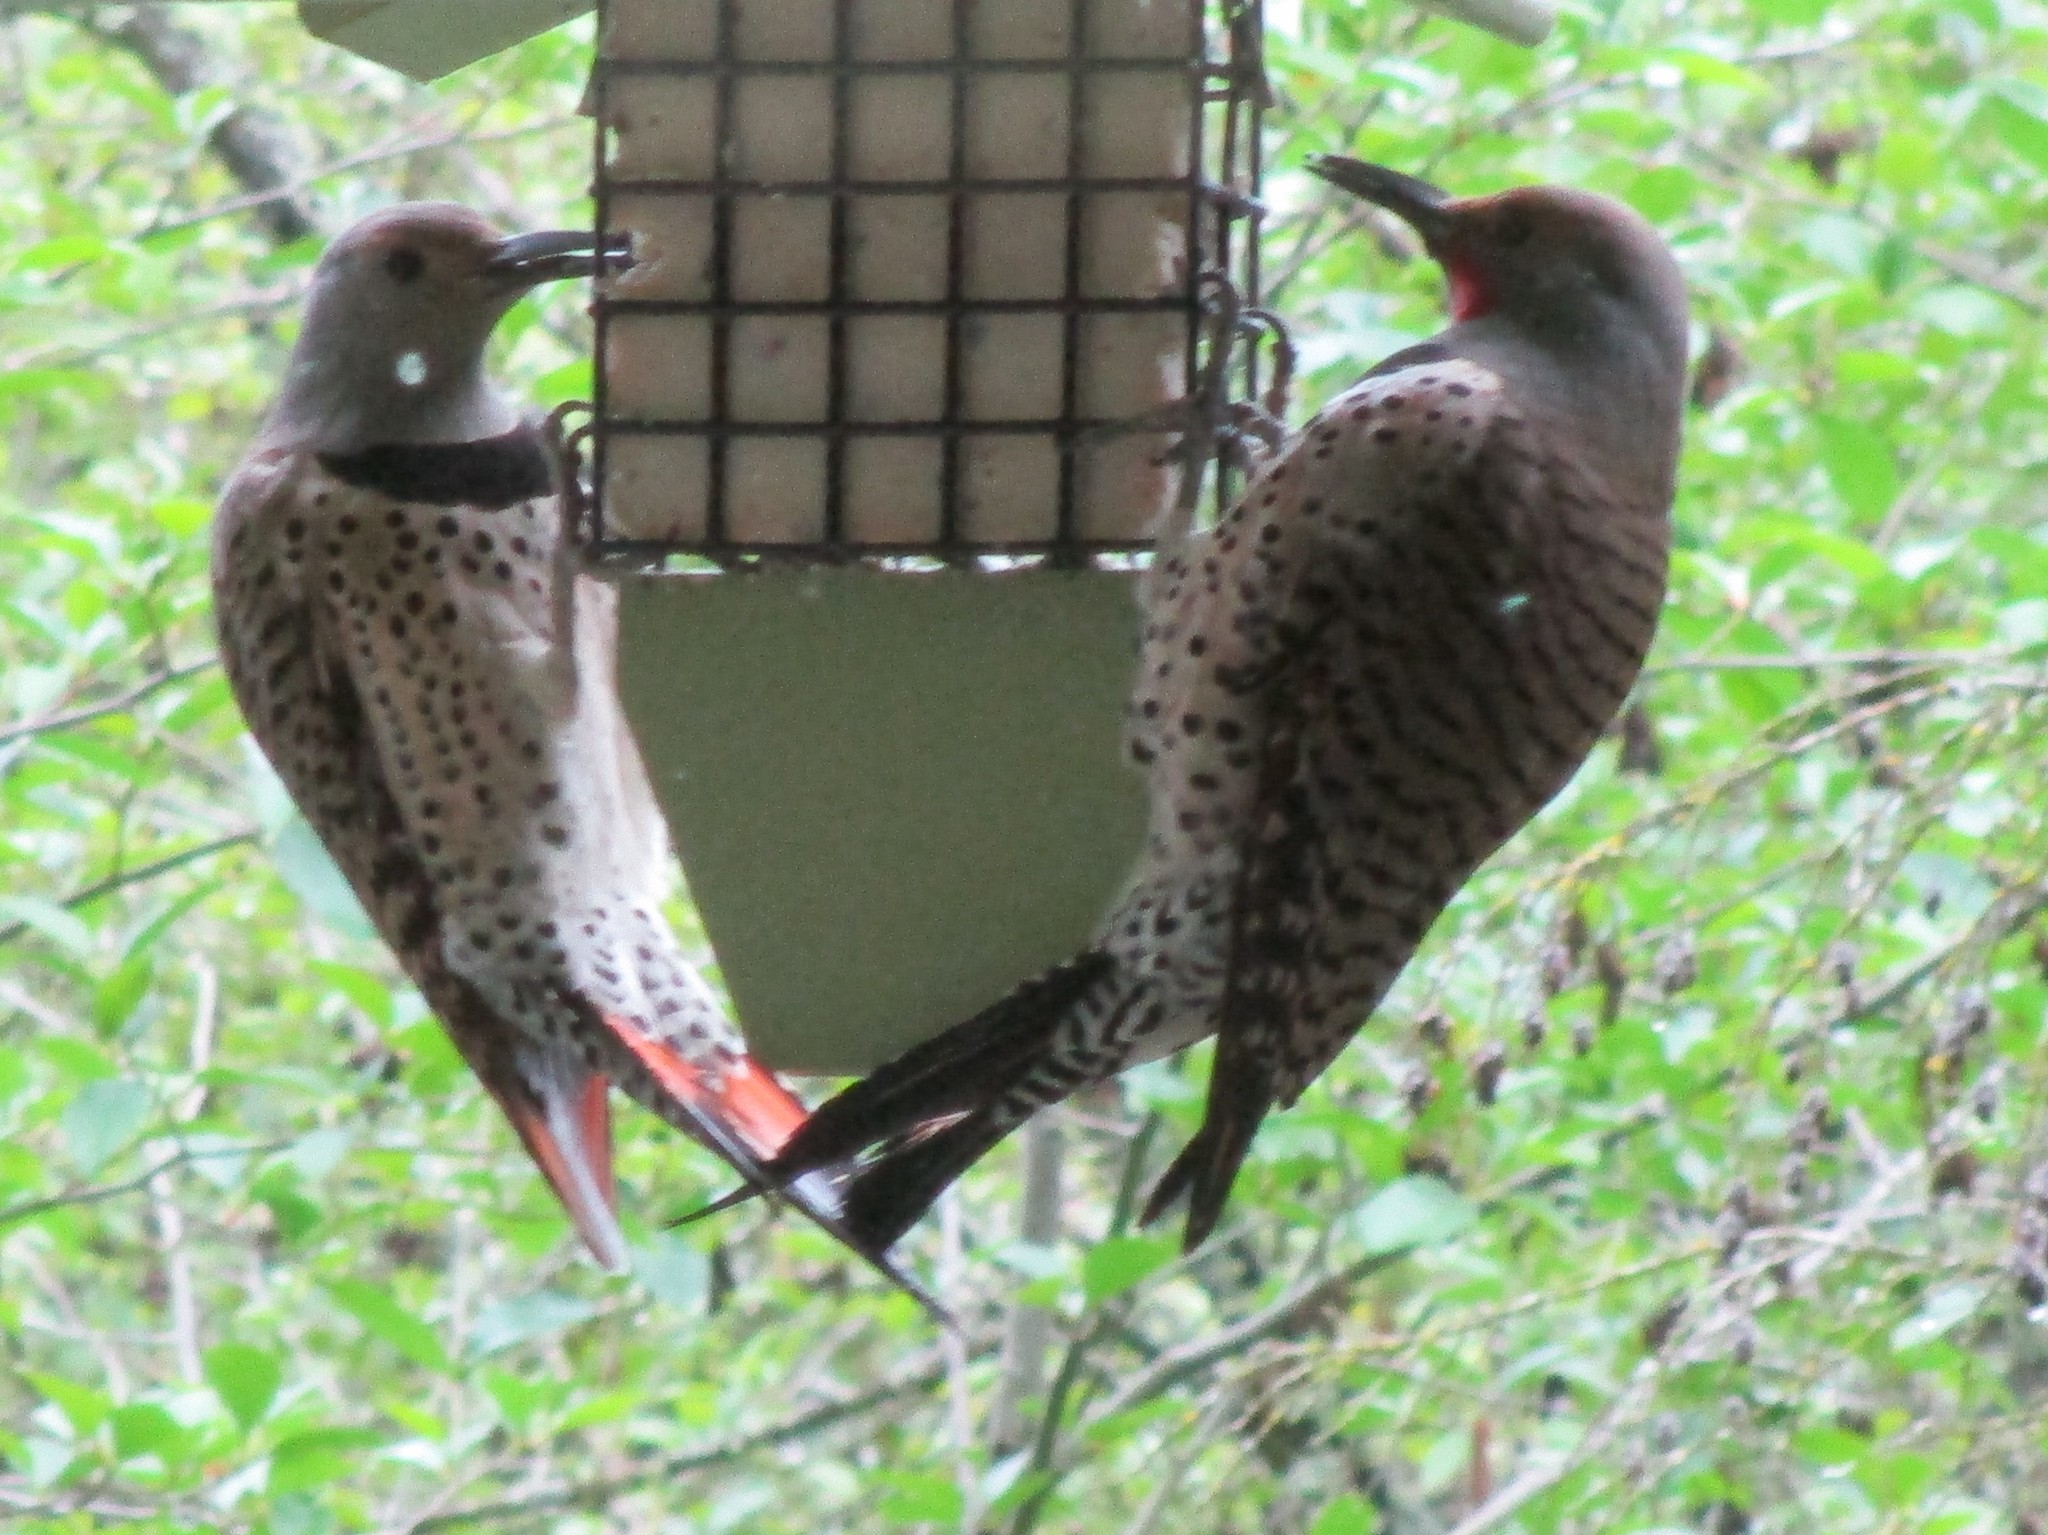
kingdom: Animalia
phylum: Chordata
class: Aves
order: Piciformes
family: Picidae
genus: Colaptes
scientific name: Colaptes auratus
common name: Northern flicker
